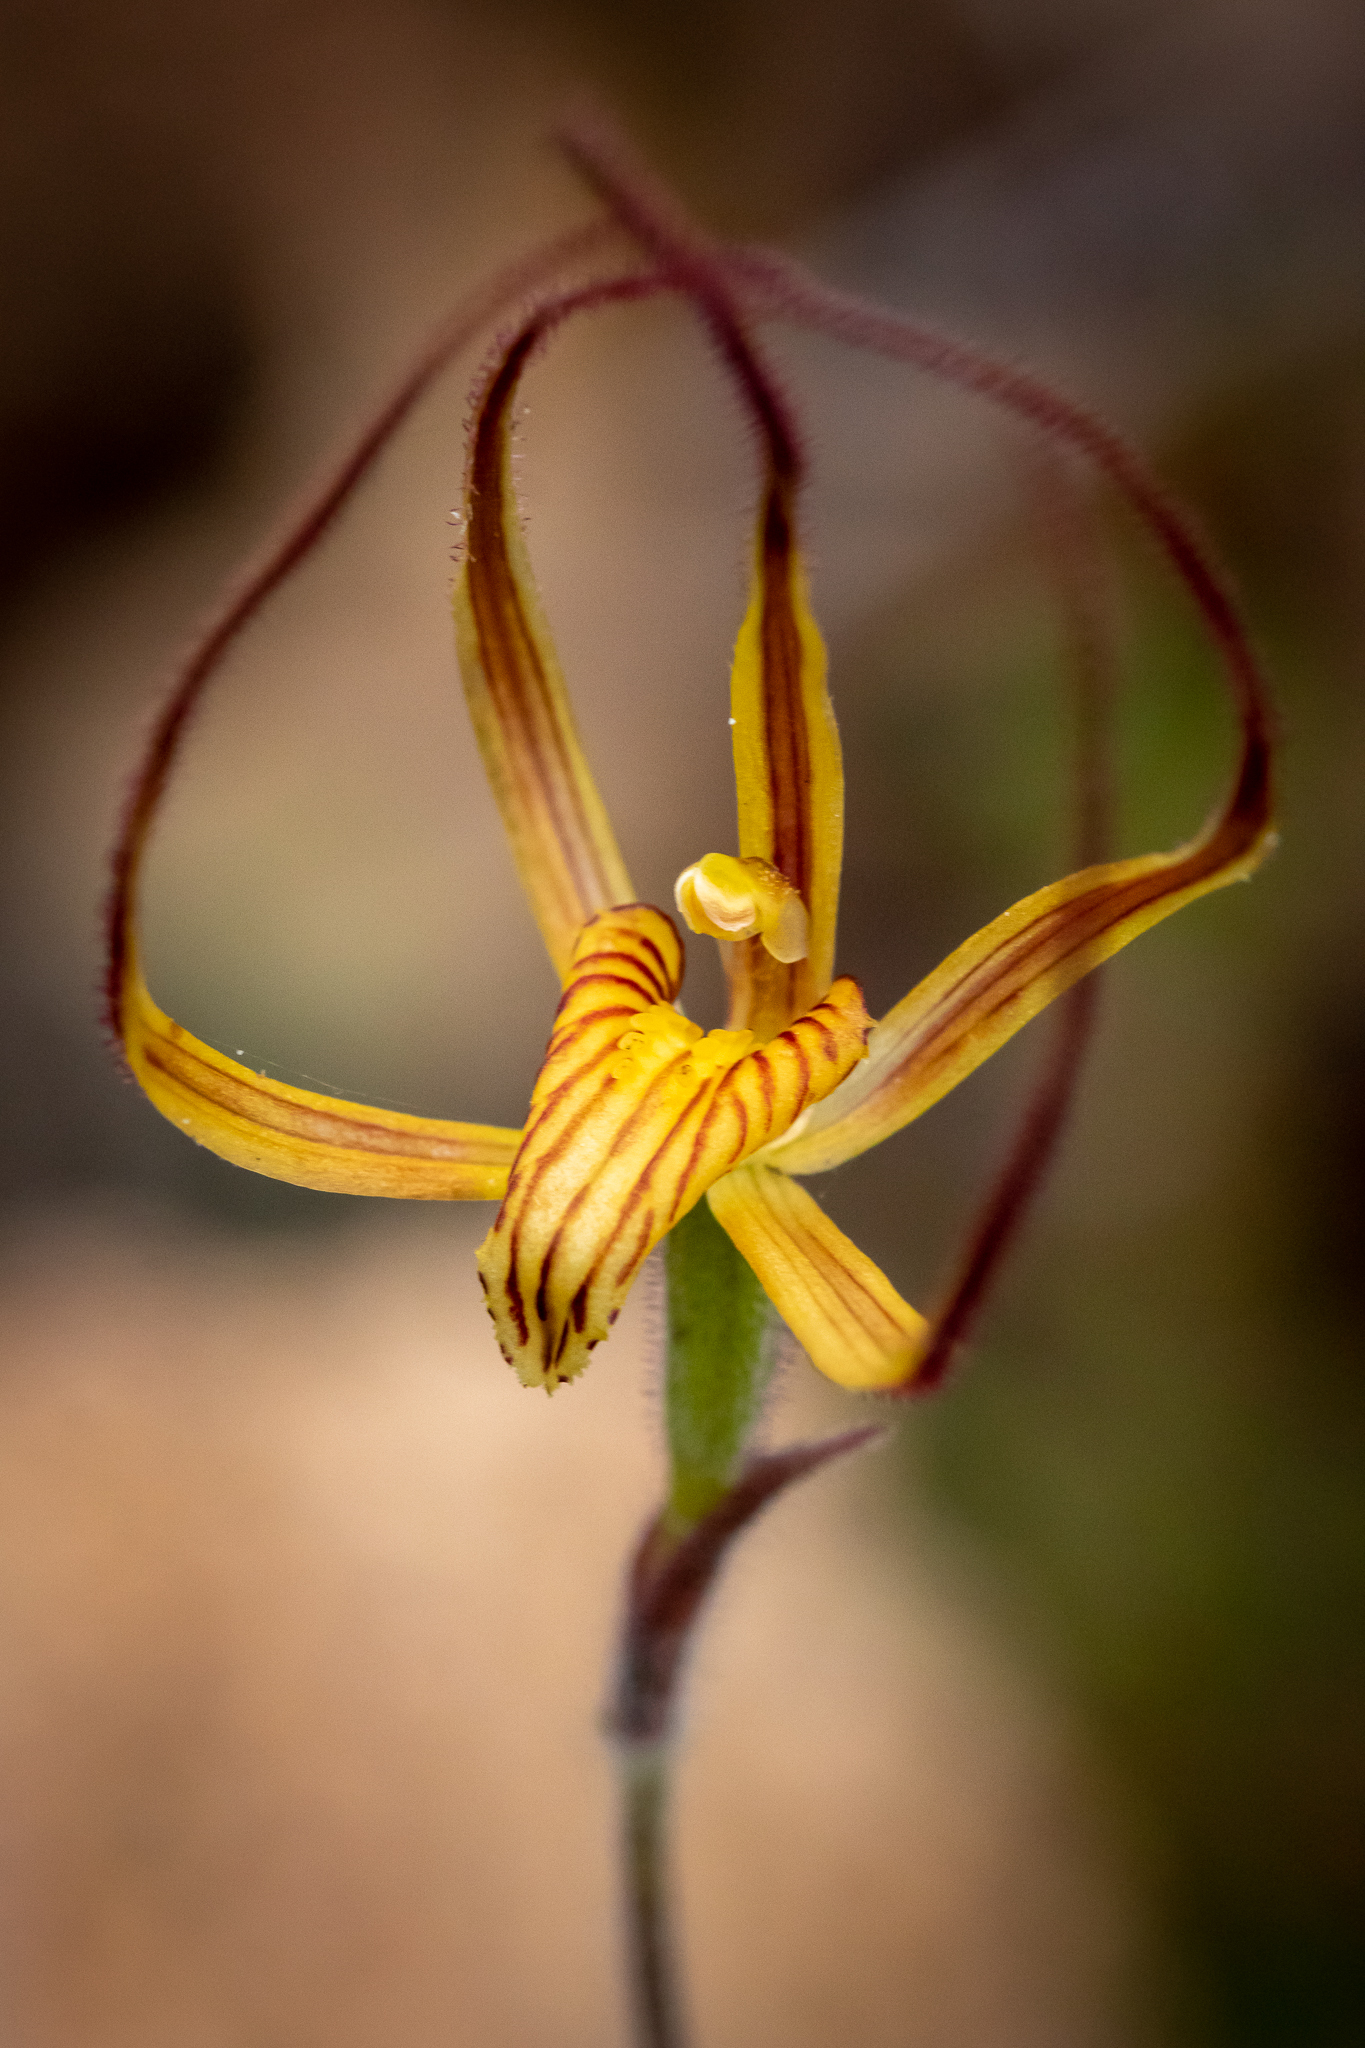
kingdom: Plantae
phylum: Tracheophyta
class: Liliopsida
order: Asparagales
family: Orchidaceae
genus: Caladenia
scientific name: Caladenia caesarea
